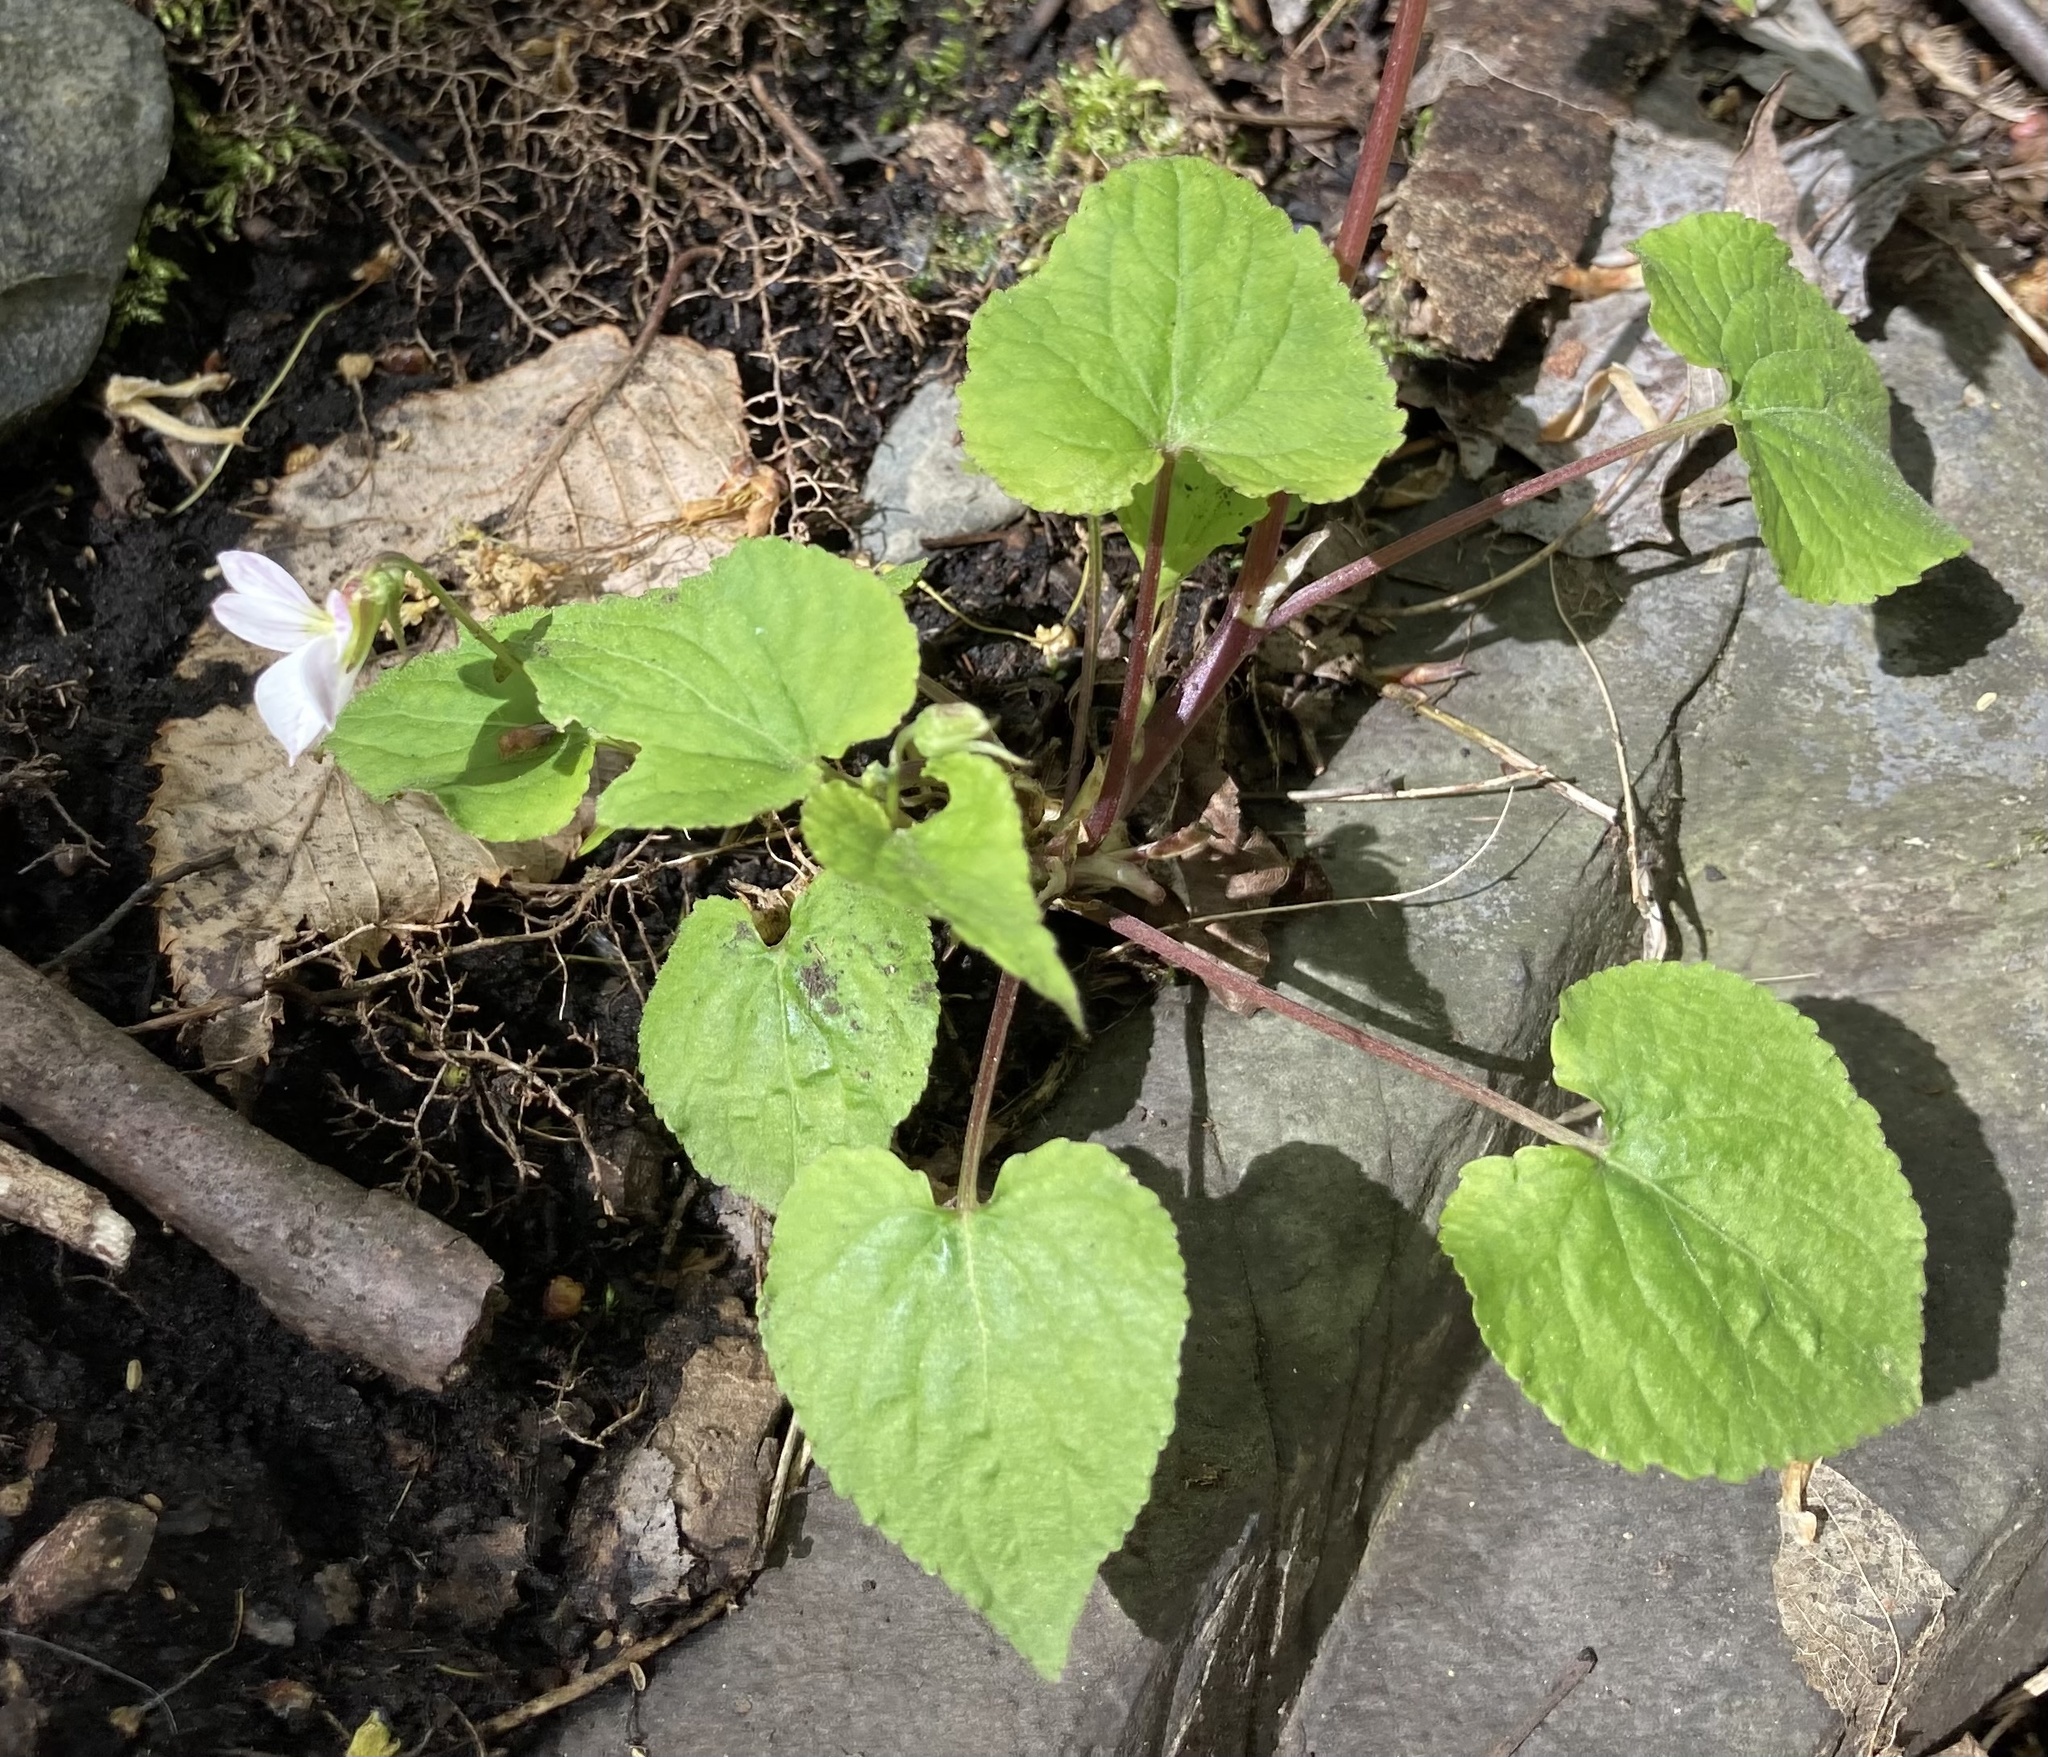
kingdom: Plantae
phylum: Tracheophyta
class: Magnoliopsida
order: Malpighiales
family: Violaceae
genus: Viola
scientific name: Viola canadensis
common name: Canada violet
